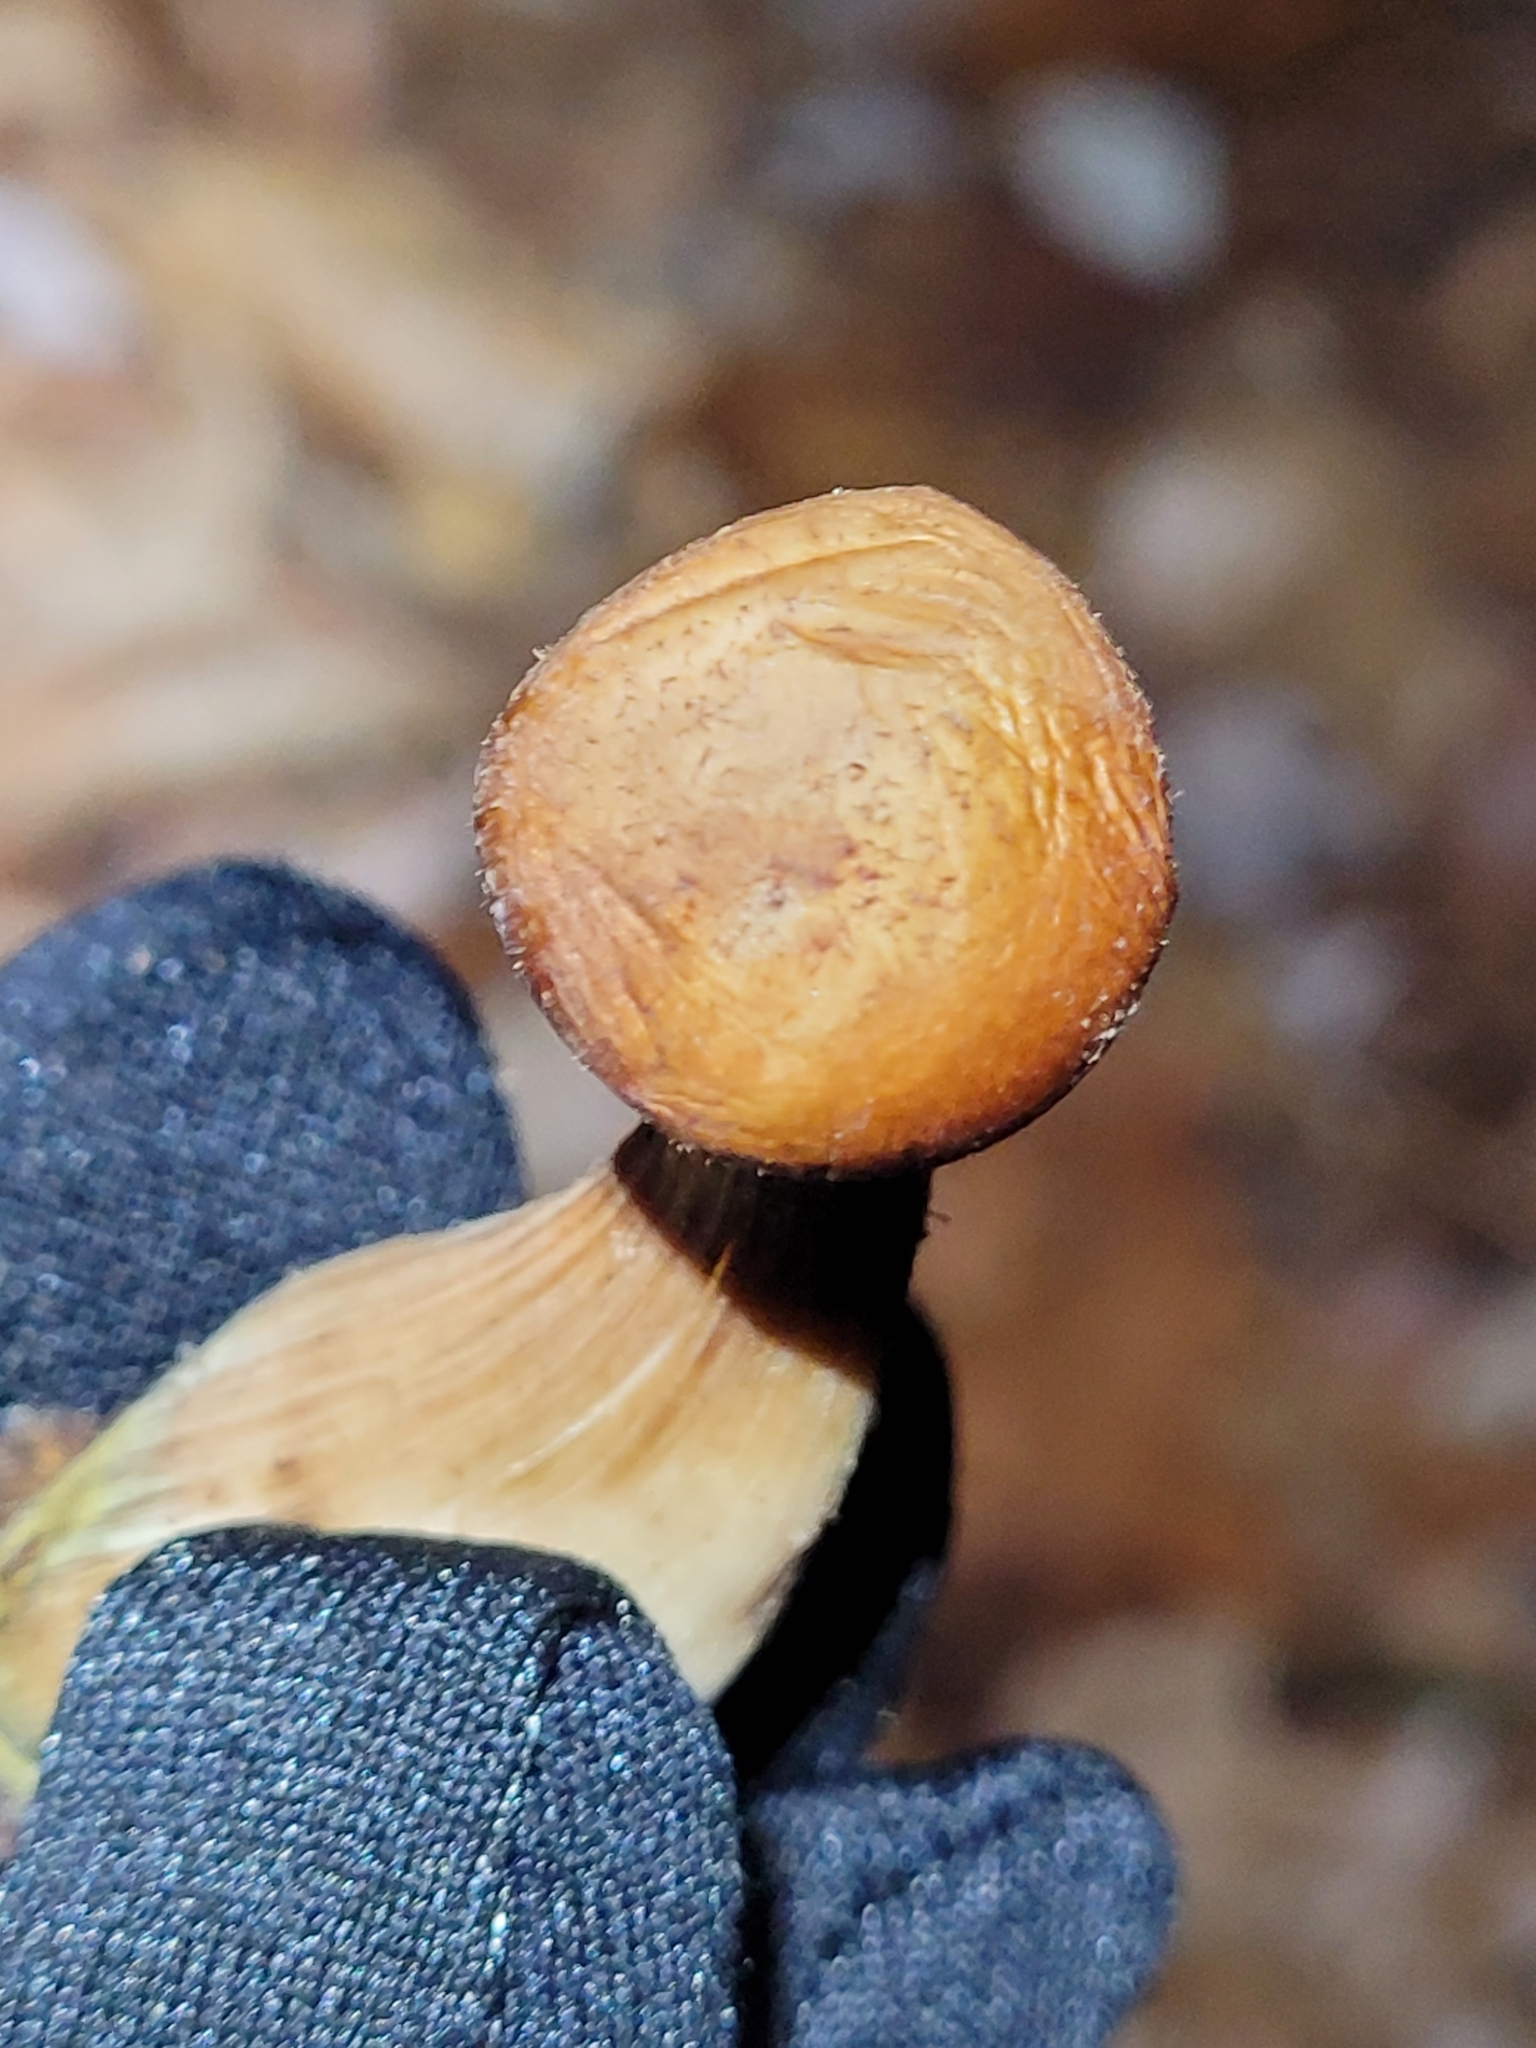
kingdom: Fungi
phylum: Basidiomycota
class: Agaricomycetes
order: Agaricales
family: Physalacriaceae
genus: Armillaria
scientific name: Armillaria gallica
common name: Bulbous honey fungus
